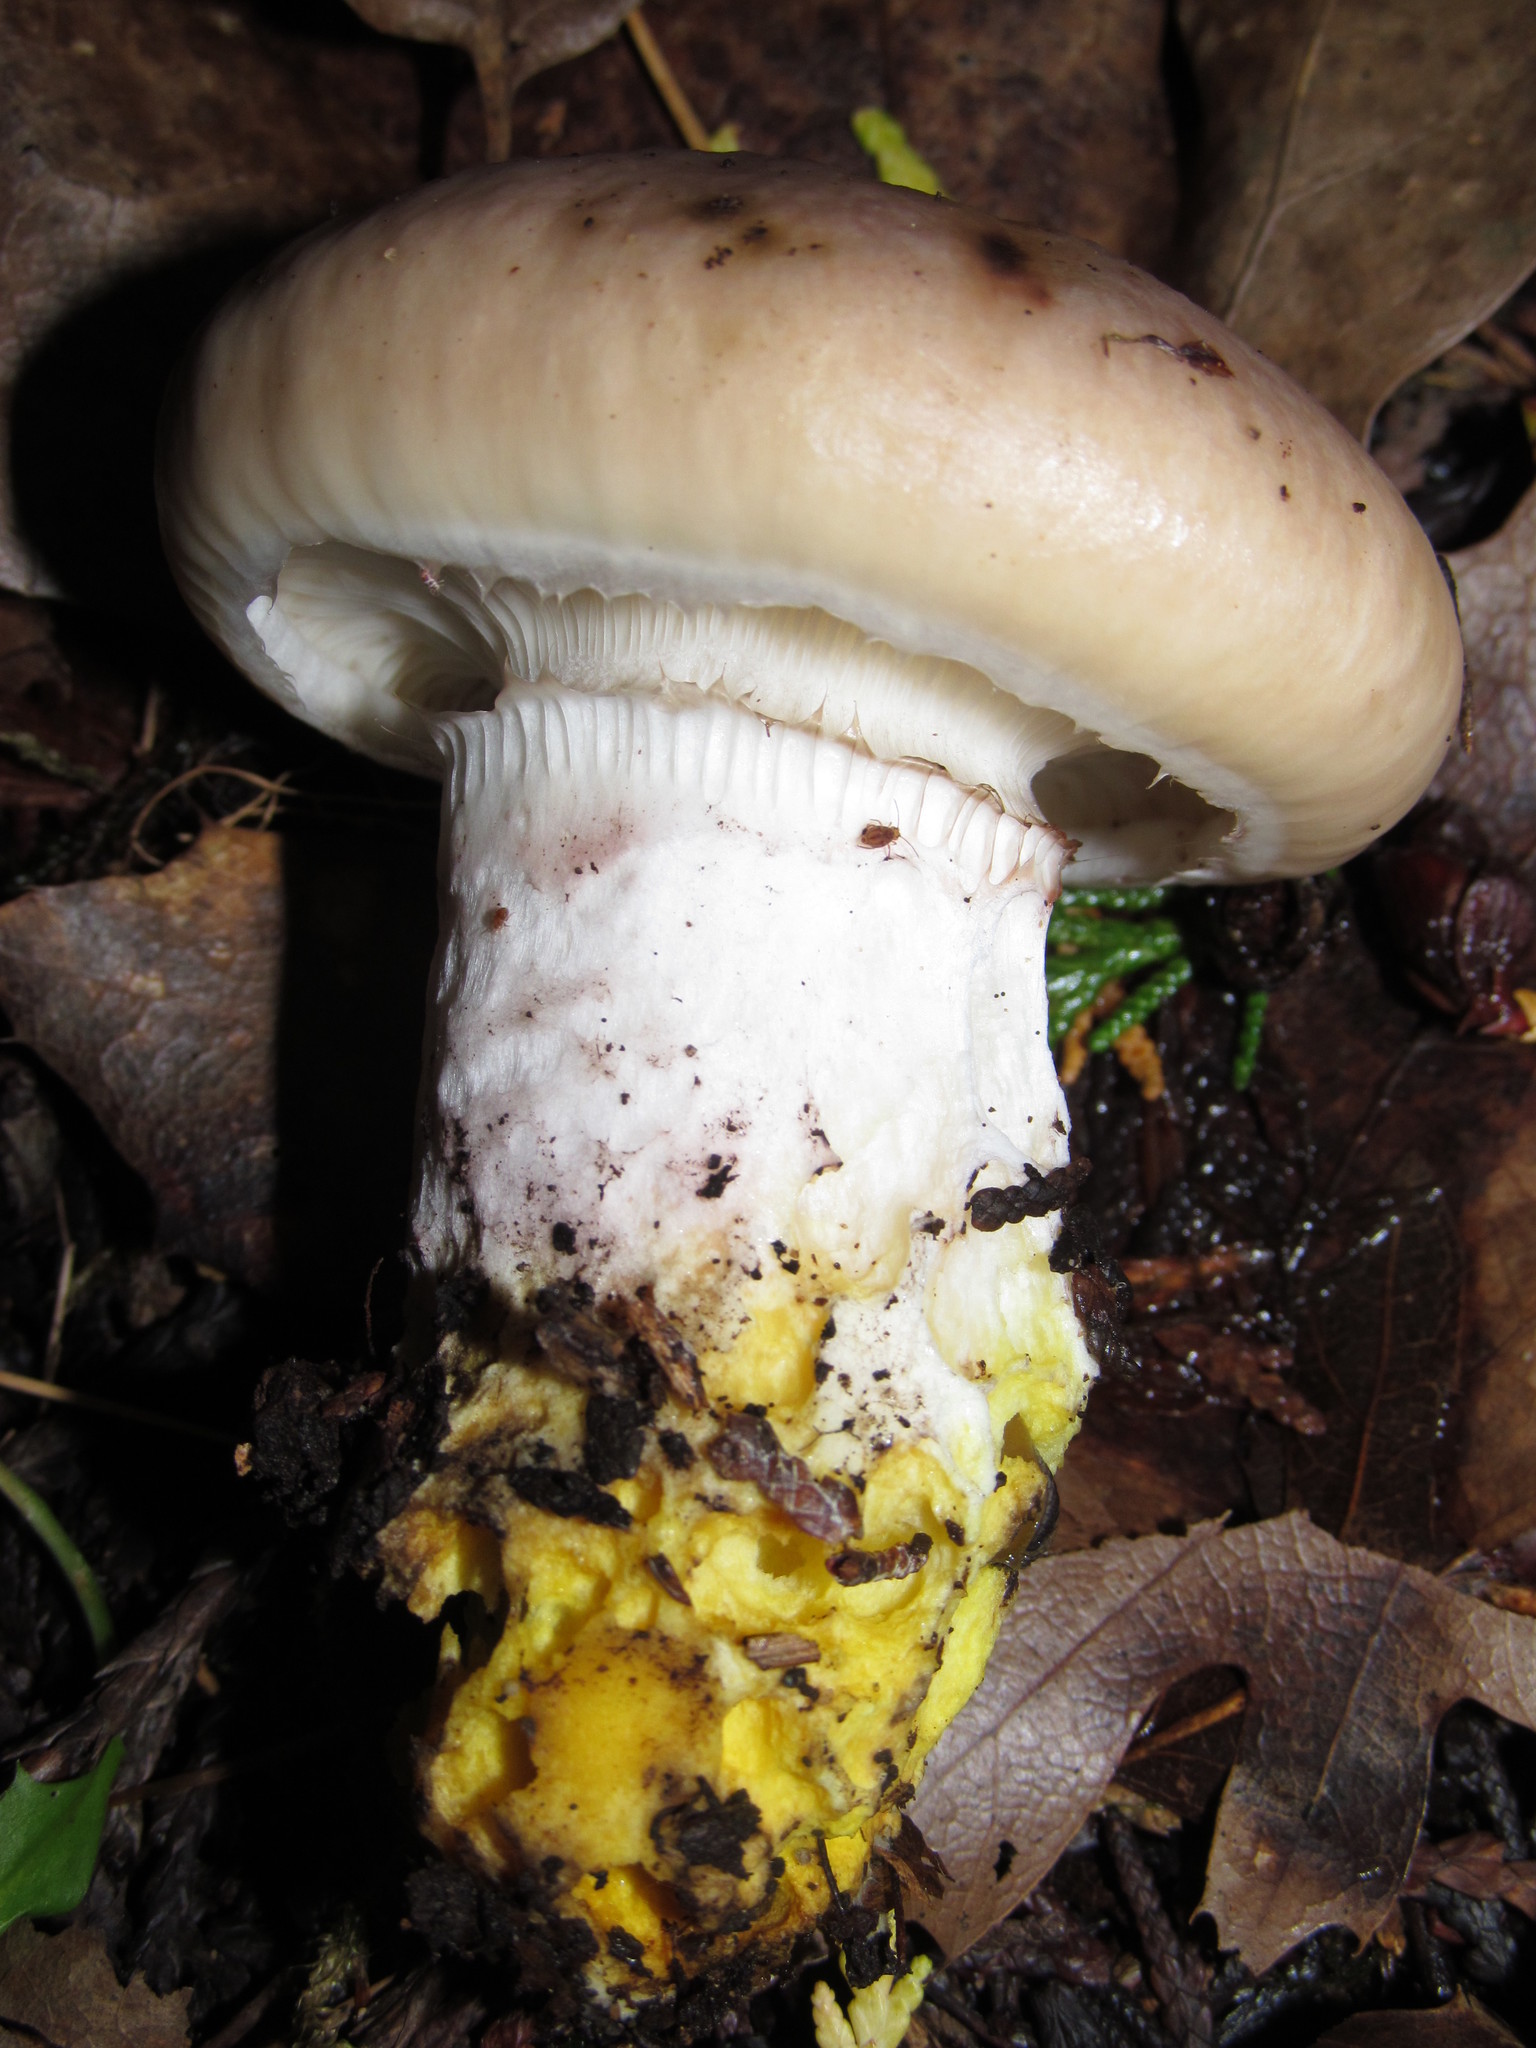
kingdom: Fungi
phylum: Basidiomycota
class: Agaricomycetes
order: Boletales
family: Gomphidiaceae
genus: Gomphidius
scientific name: Gomphidius oregonensis
